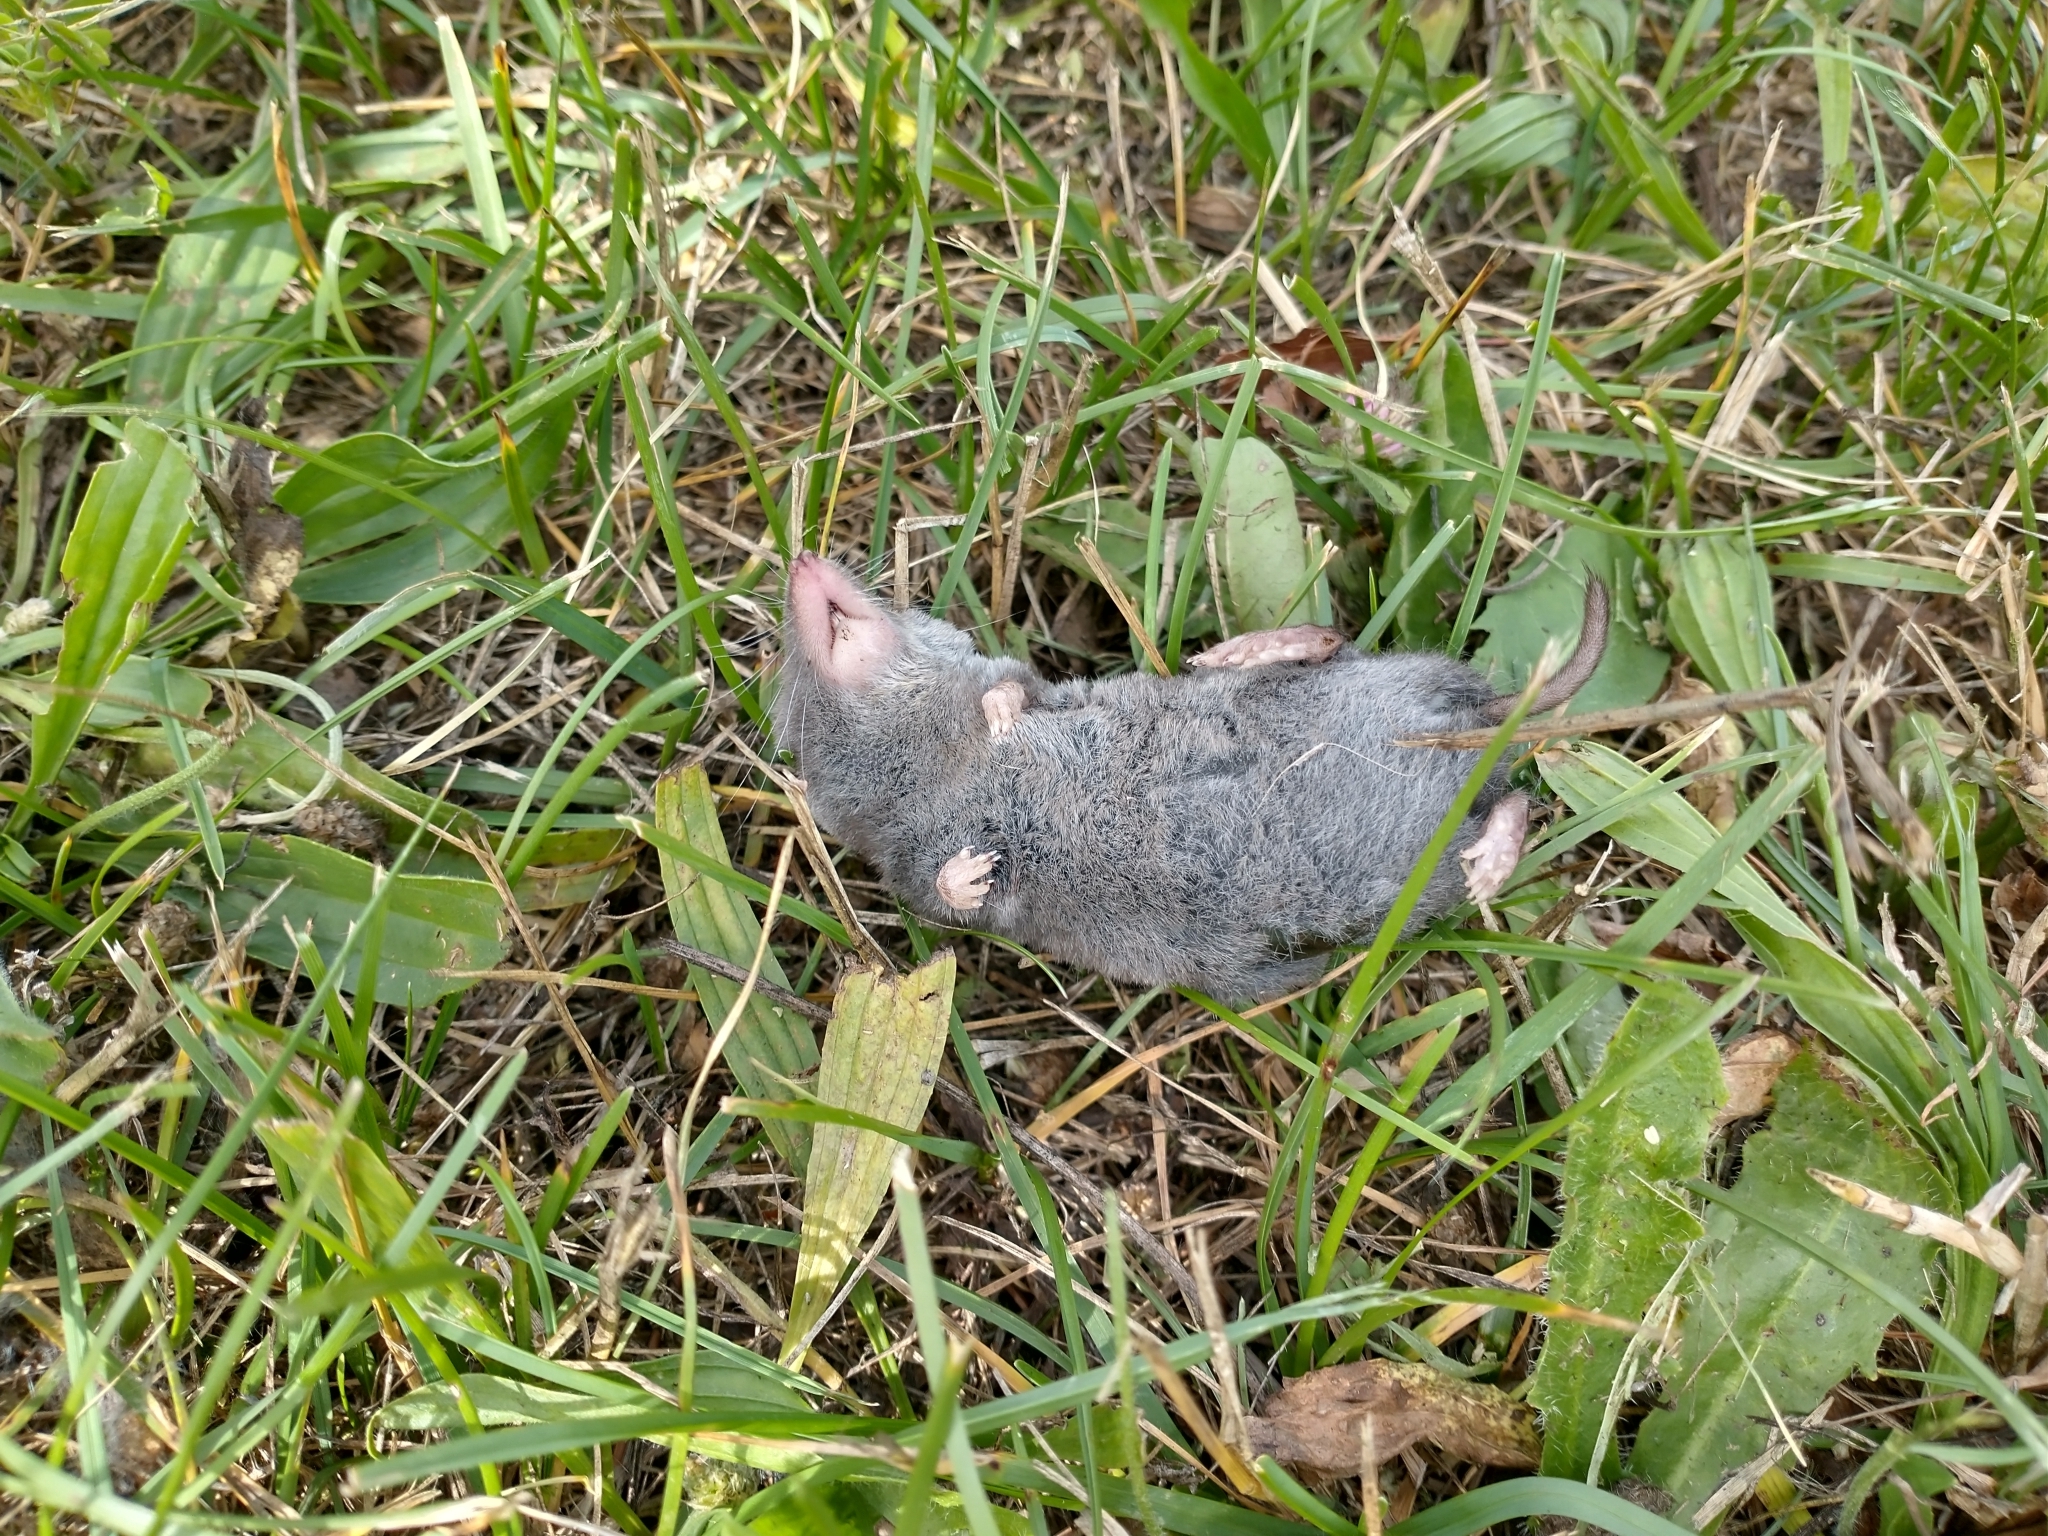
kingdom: Animalia
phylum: Chordata
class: Mammalia
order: Soricomorpha
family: Soricidae
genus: Blarina
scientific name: Blarina brevicauda
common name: Northern short-tailed shrew
